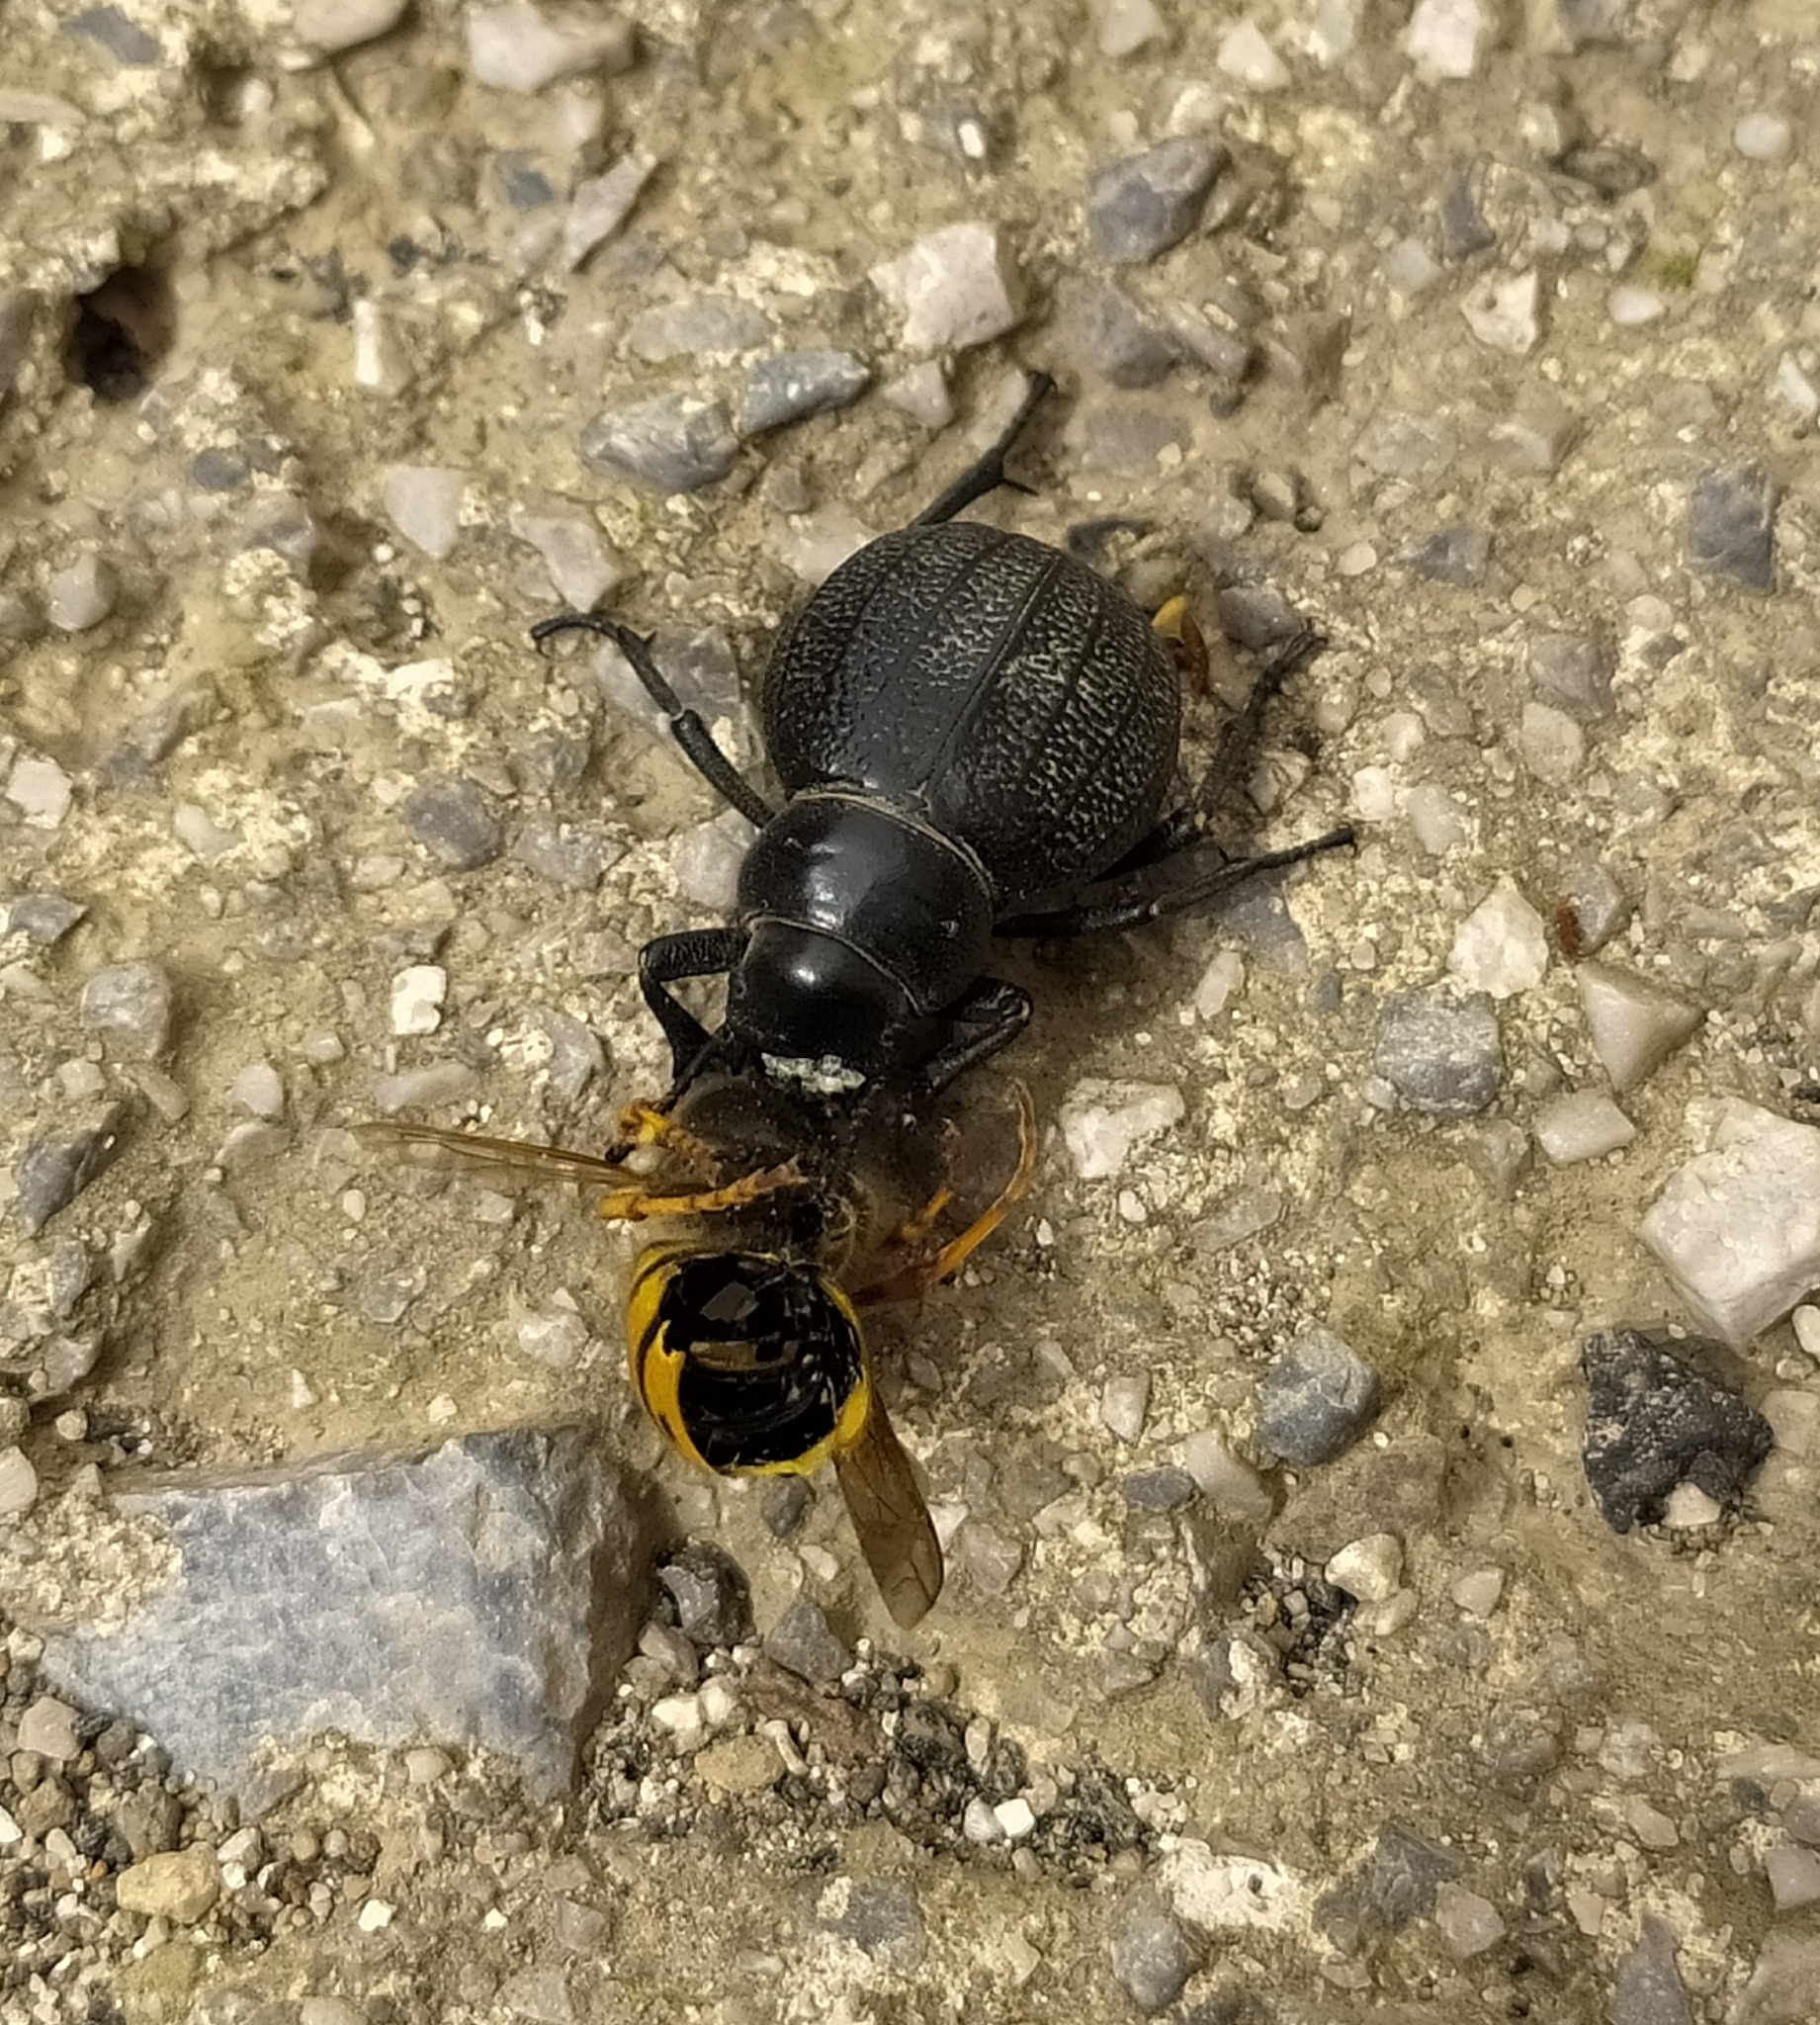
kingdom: Animalia
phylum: Arthropoda
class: Insecta
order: Coleoptera
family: Tenebrionidae
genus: Pimelia
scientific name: Pimelia bipunctata
